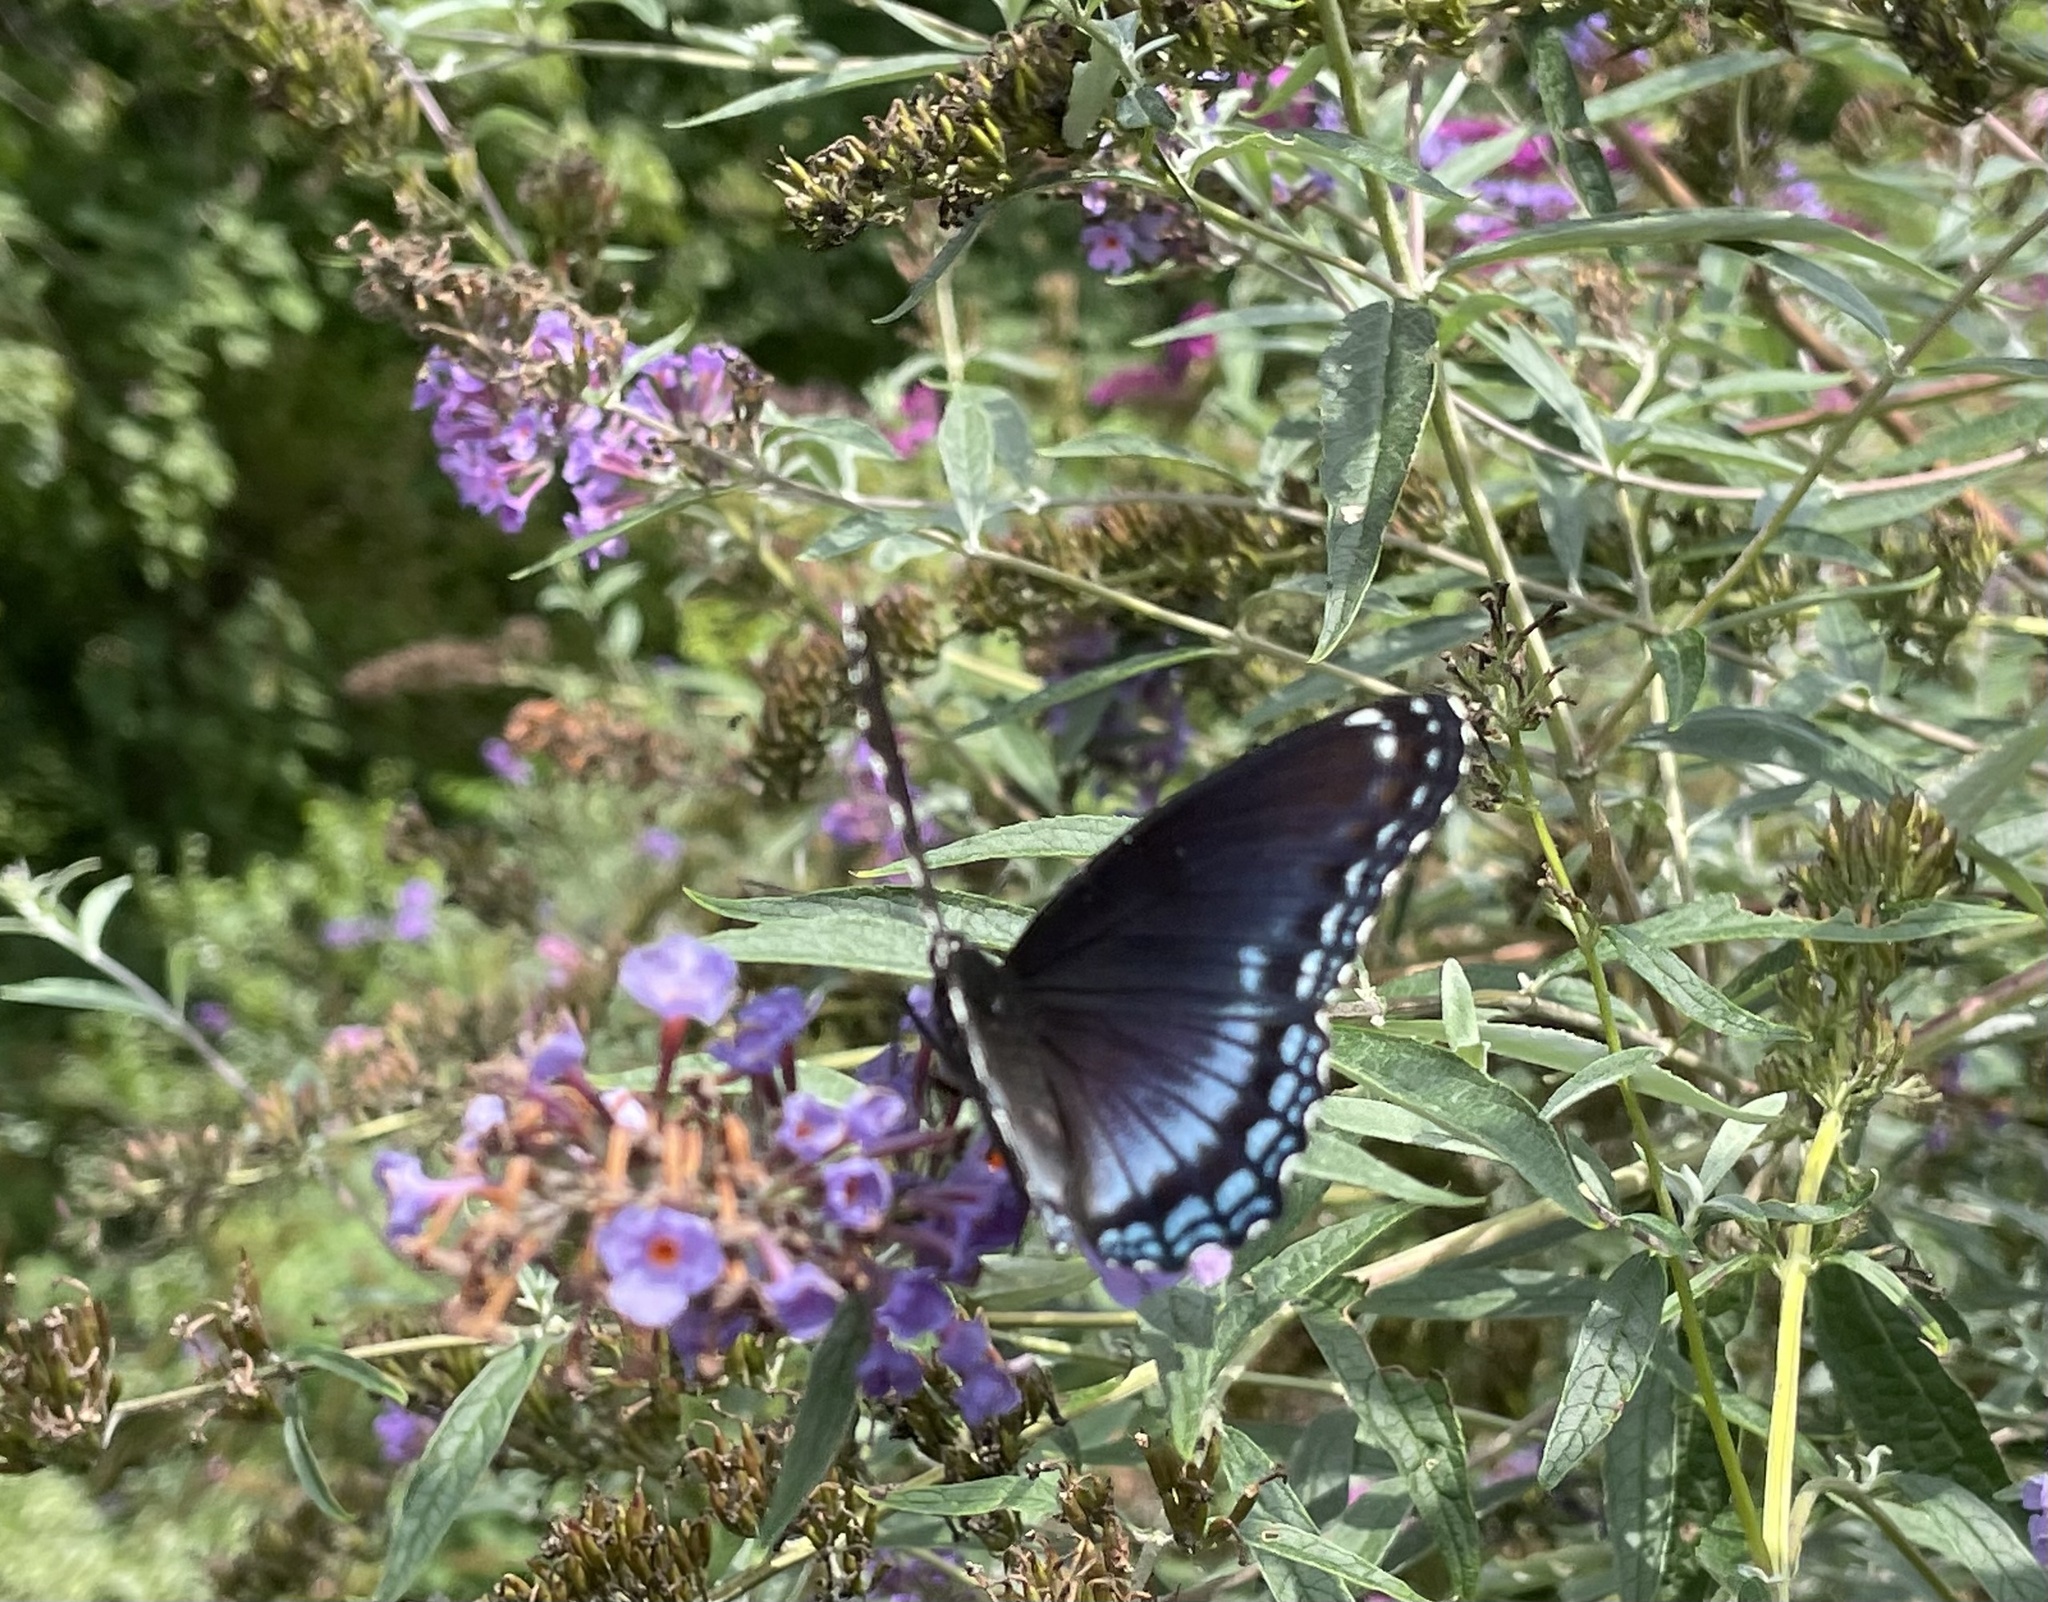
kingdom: Animalia
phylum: Arthropoda
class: Insecta
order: Lepidoptera
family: Nymphalidae
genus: Limenitis
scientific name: Limenitis arthemis
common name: Red-spotted admiral
